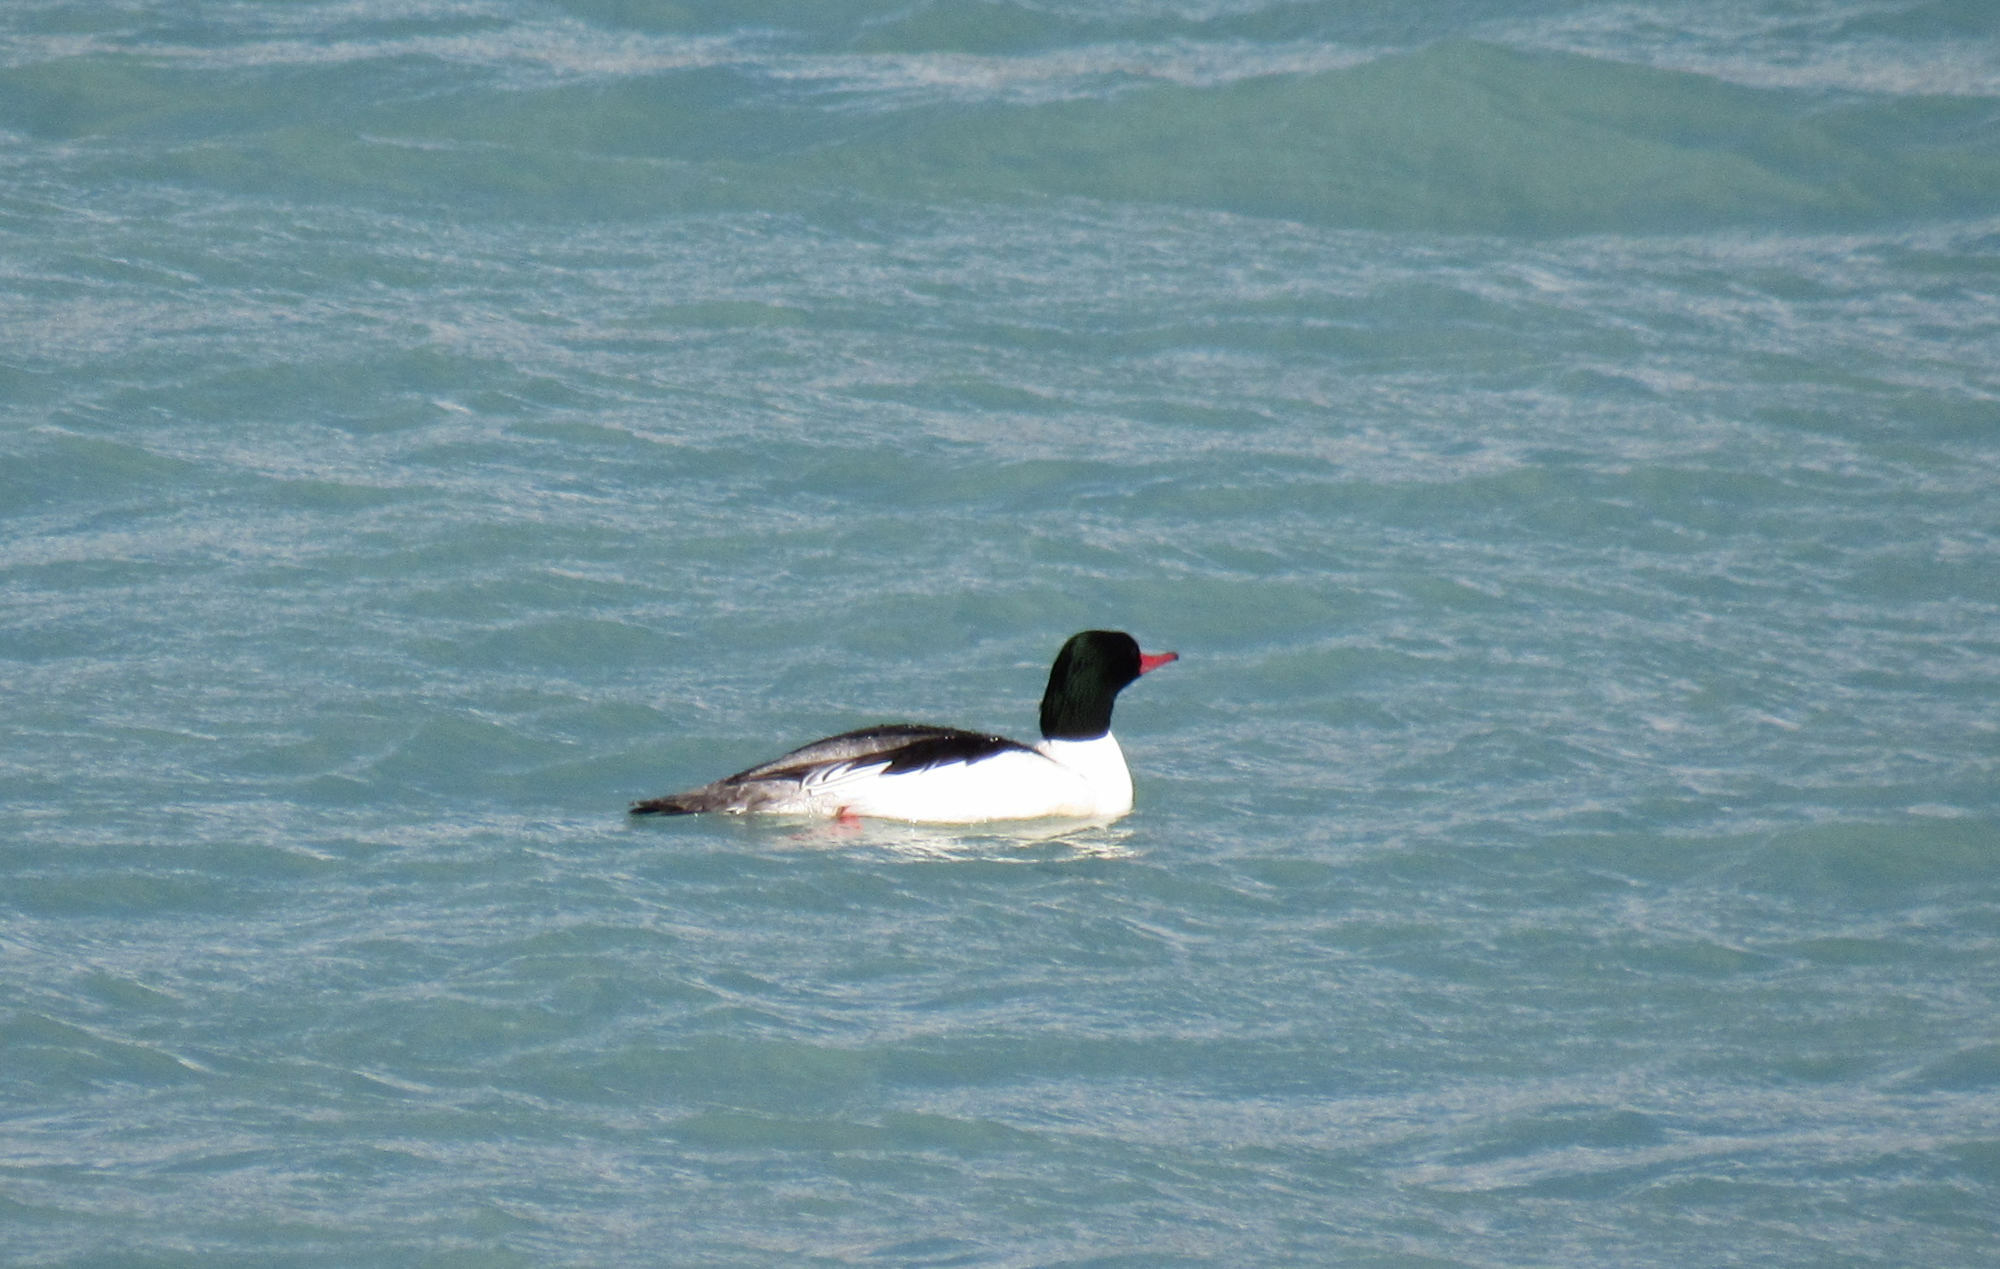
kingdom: Animalia
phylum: Chordata
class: Aves
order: Anseriformes
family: Anatidae
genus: Mergus
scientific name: Mergus merganser
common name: Common merganser
